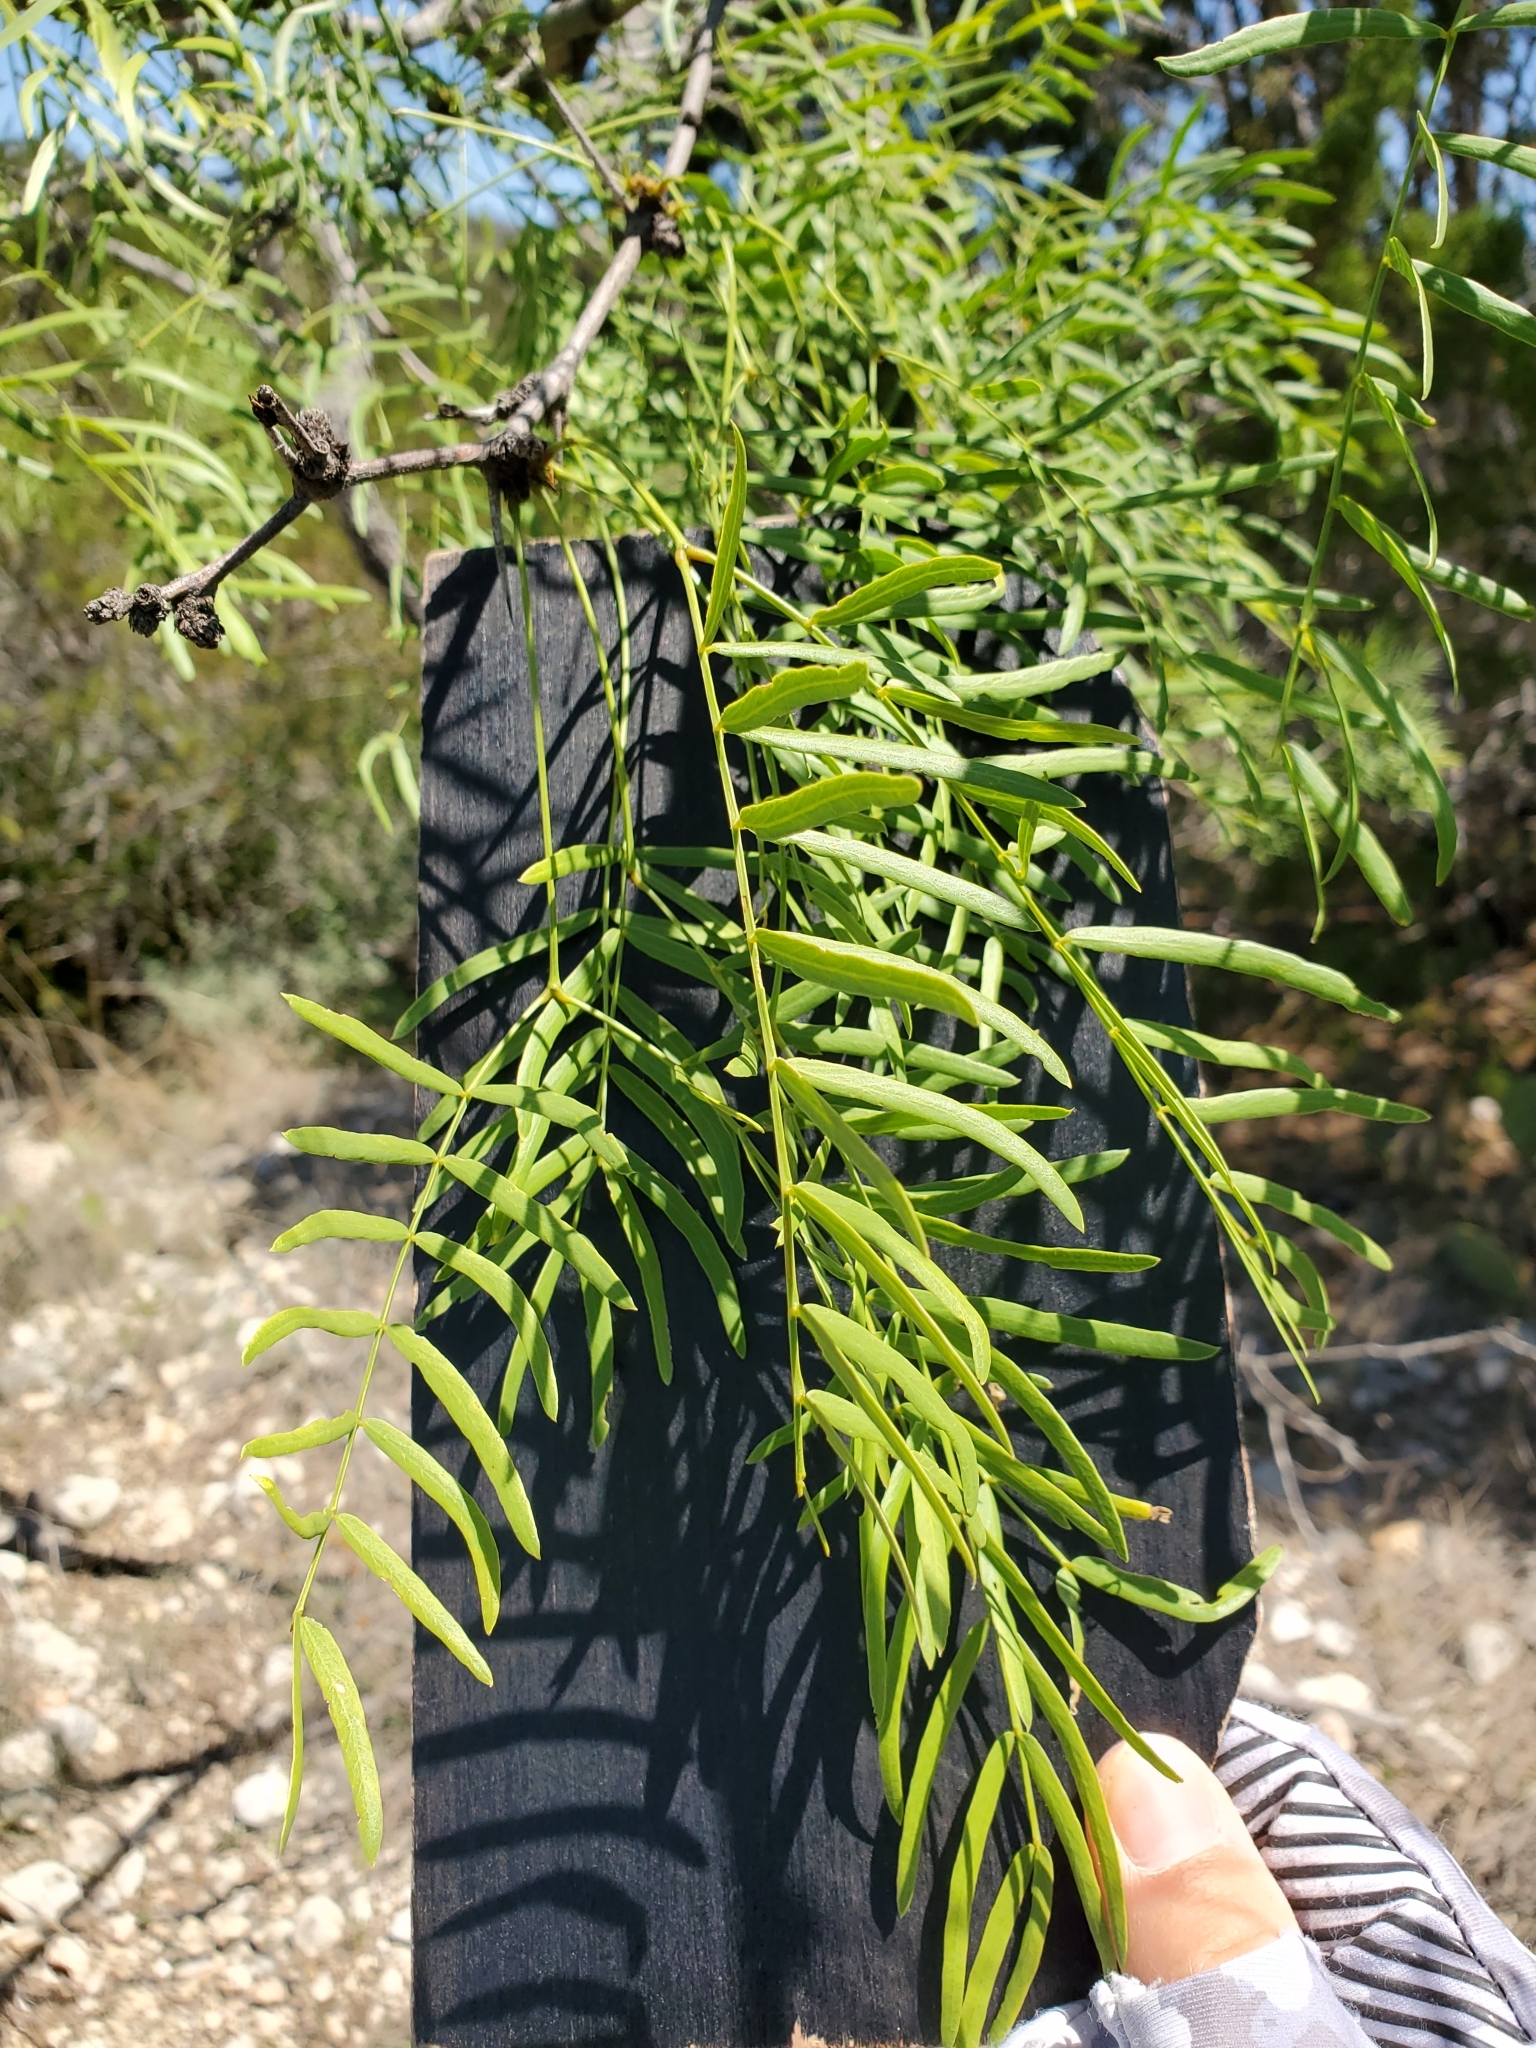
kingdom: Plantae
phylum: Tracheophyta
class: Magnoliopsida
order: Fabales
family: Fabaceae
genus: Prosopis
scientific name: Prosopis glandulosa
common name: Honey mesquite
